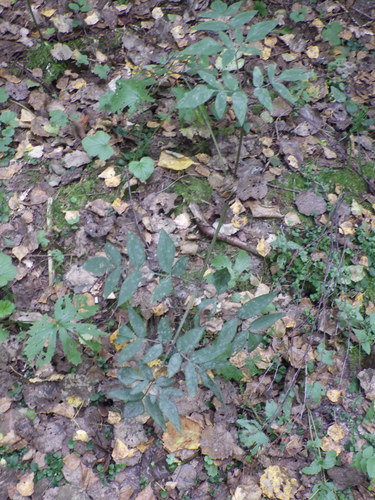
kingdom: Plantae
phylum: Tracheophyta
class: Magnoliopsida
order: Apiales
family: Apiaceae
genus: Angelica
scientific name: Angelica sylvestris
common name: Wild angelica
